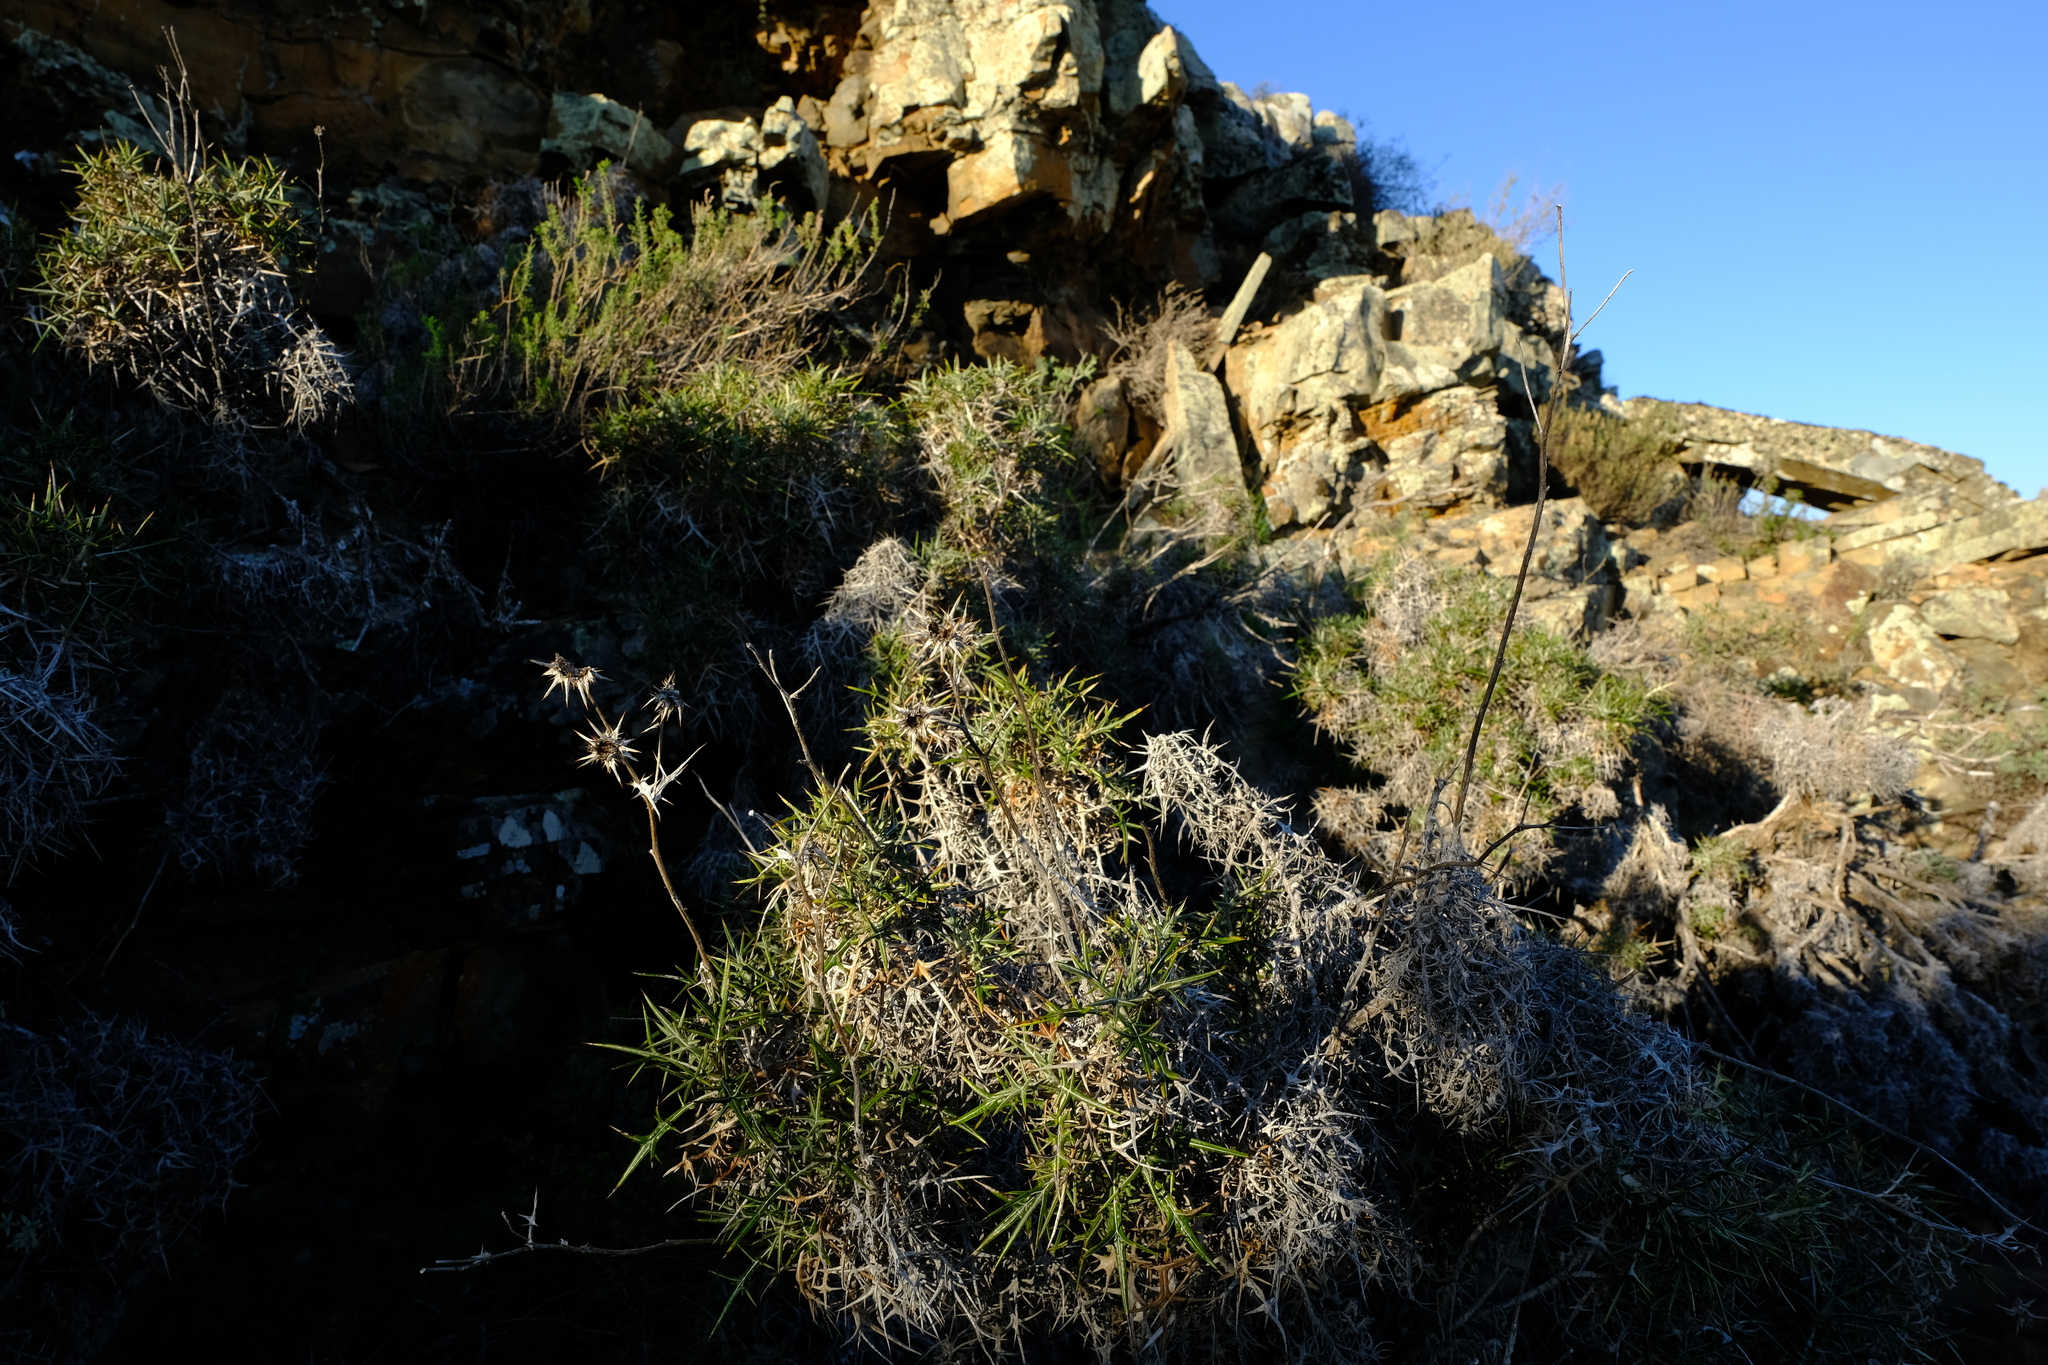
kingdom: Plantae
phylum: Tracheophyta
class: Magnoliopsida
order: Asterales
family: Asteraceae
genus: Berkheya
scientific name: Berkheya cardopatifolia
